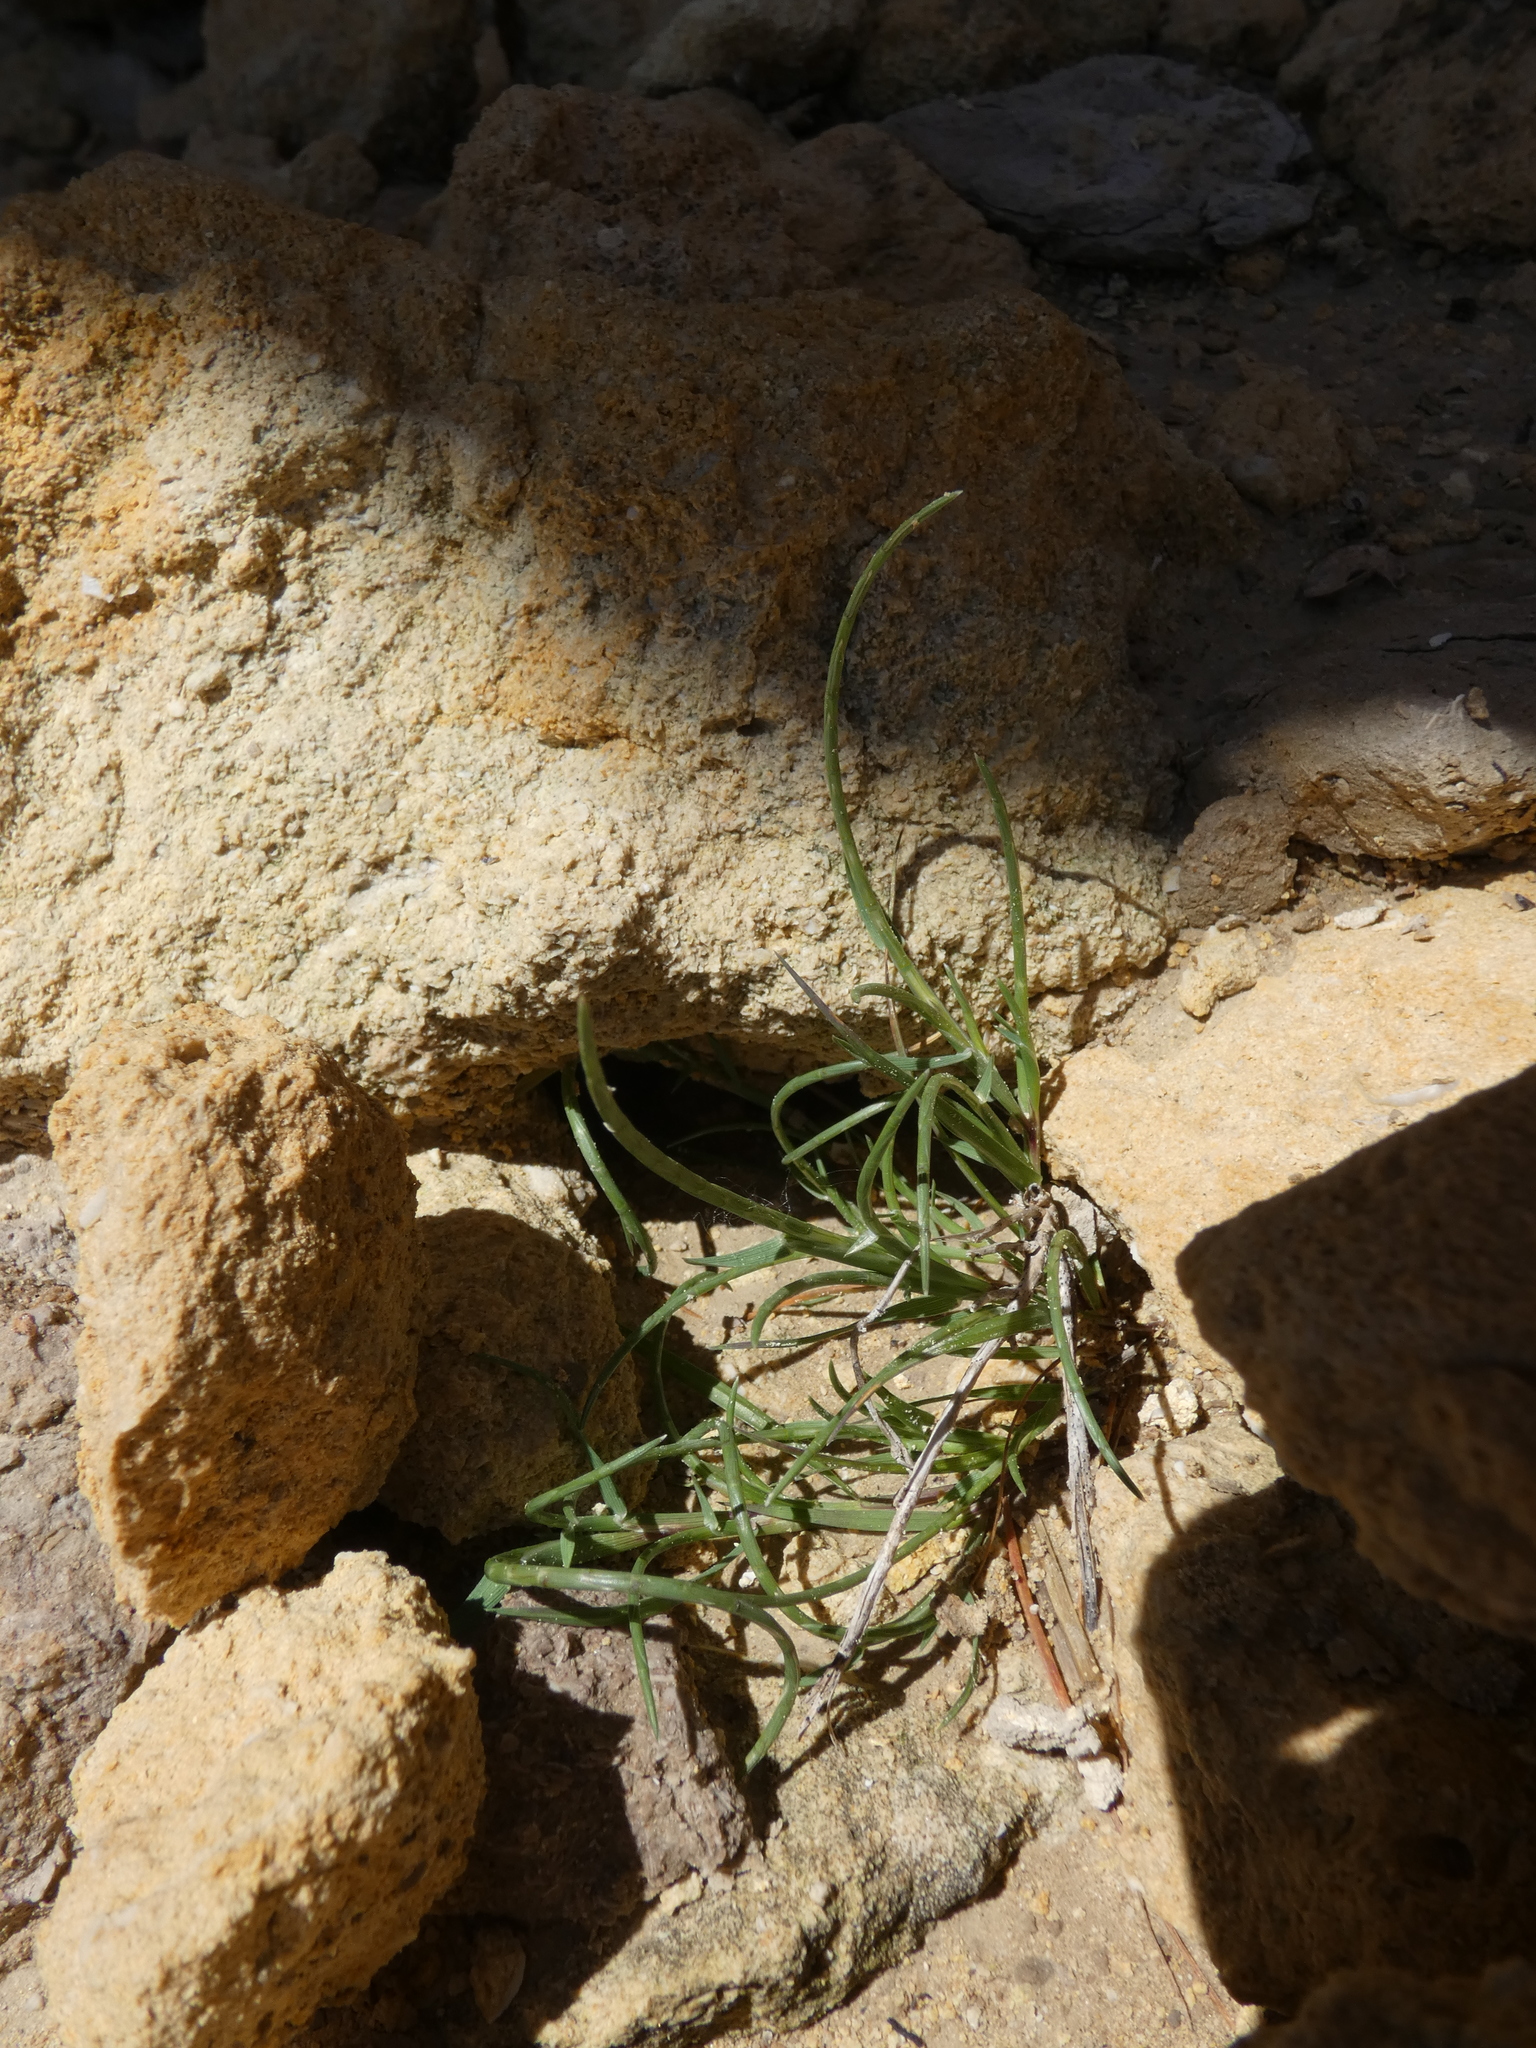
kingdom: Plantae
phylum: Tracheophyta
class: Liliopsida
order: Poales
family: Poaceae
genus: Parapholis
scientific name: Parapholis incurva
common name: Curved sicklegrass
